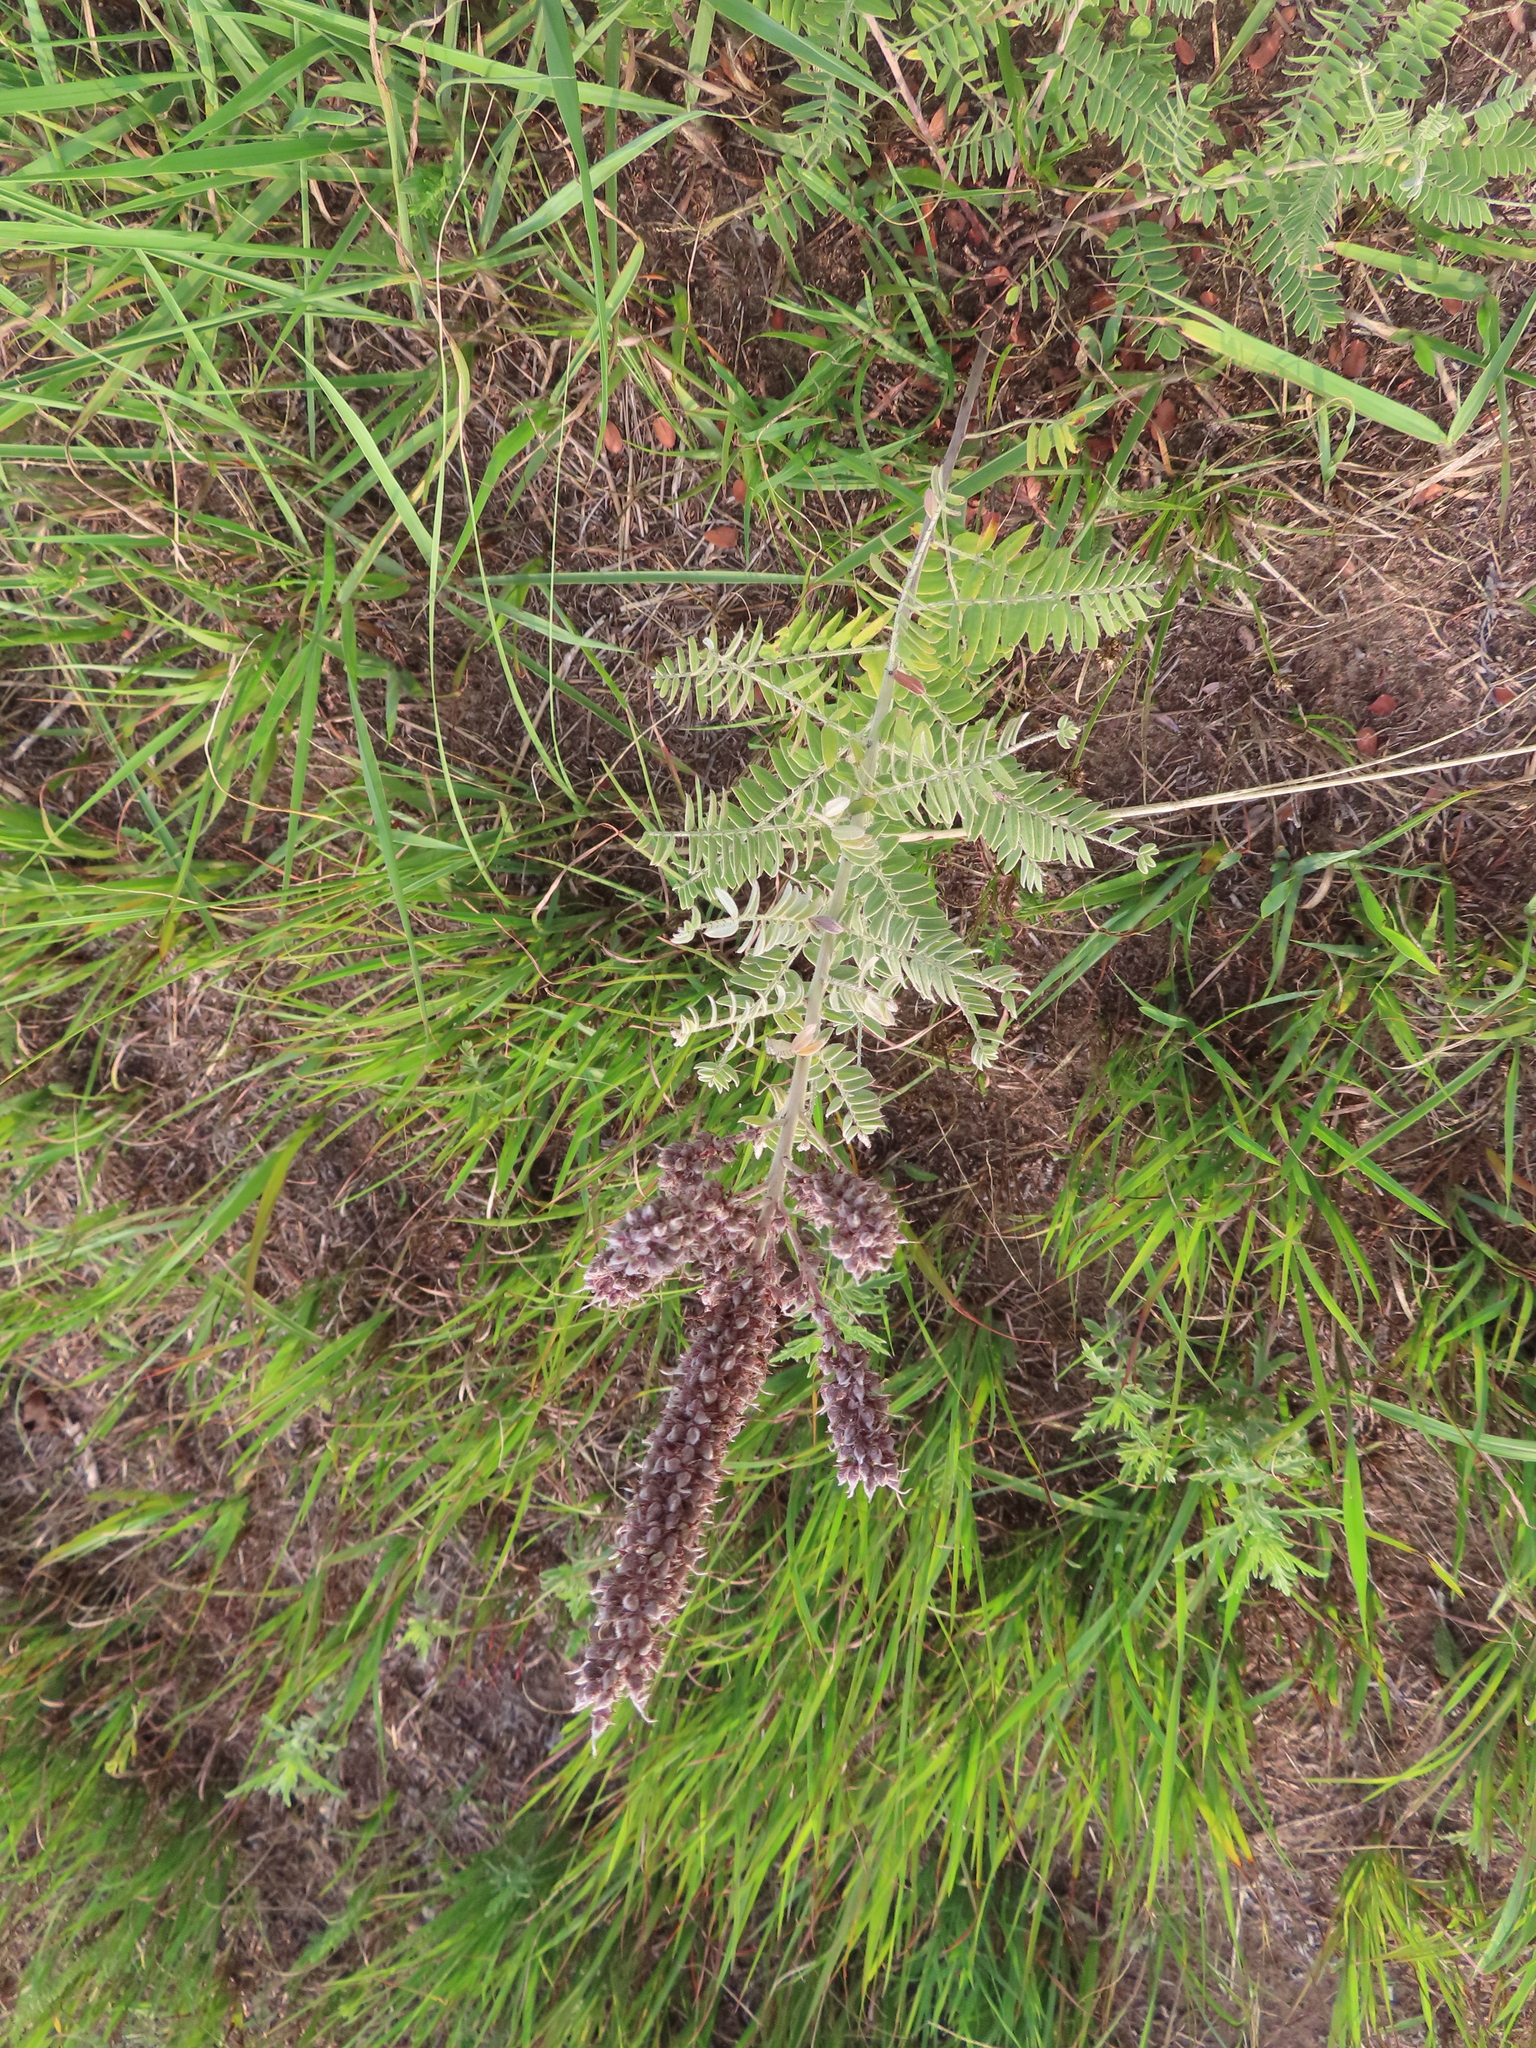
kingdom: Plantae
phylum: Tracheophyta
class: Magnoliopsida
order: Fabales
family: Fabaceae
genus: Amorpha
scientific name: Amorpha canescens
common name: Leadplant
